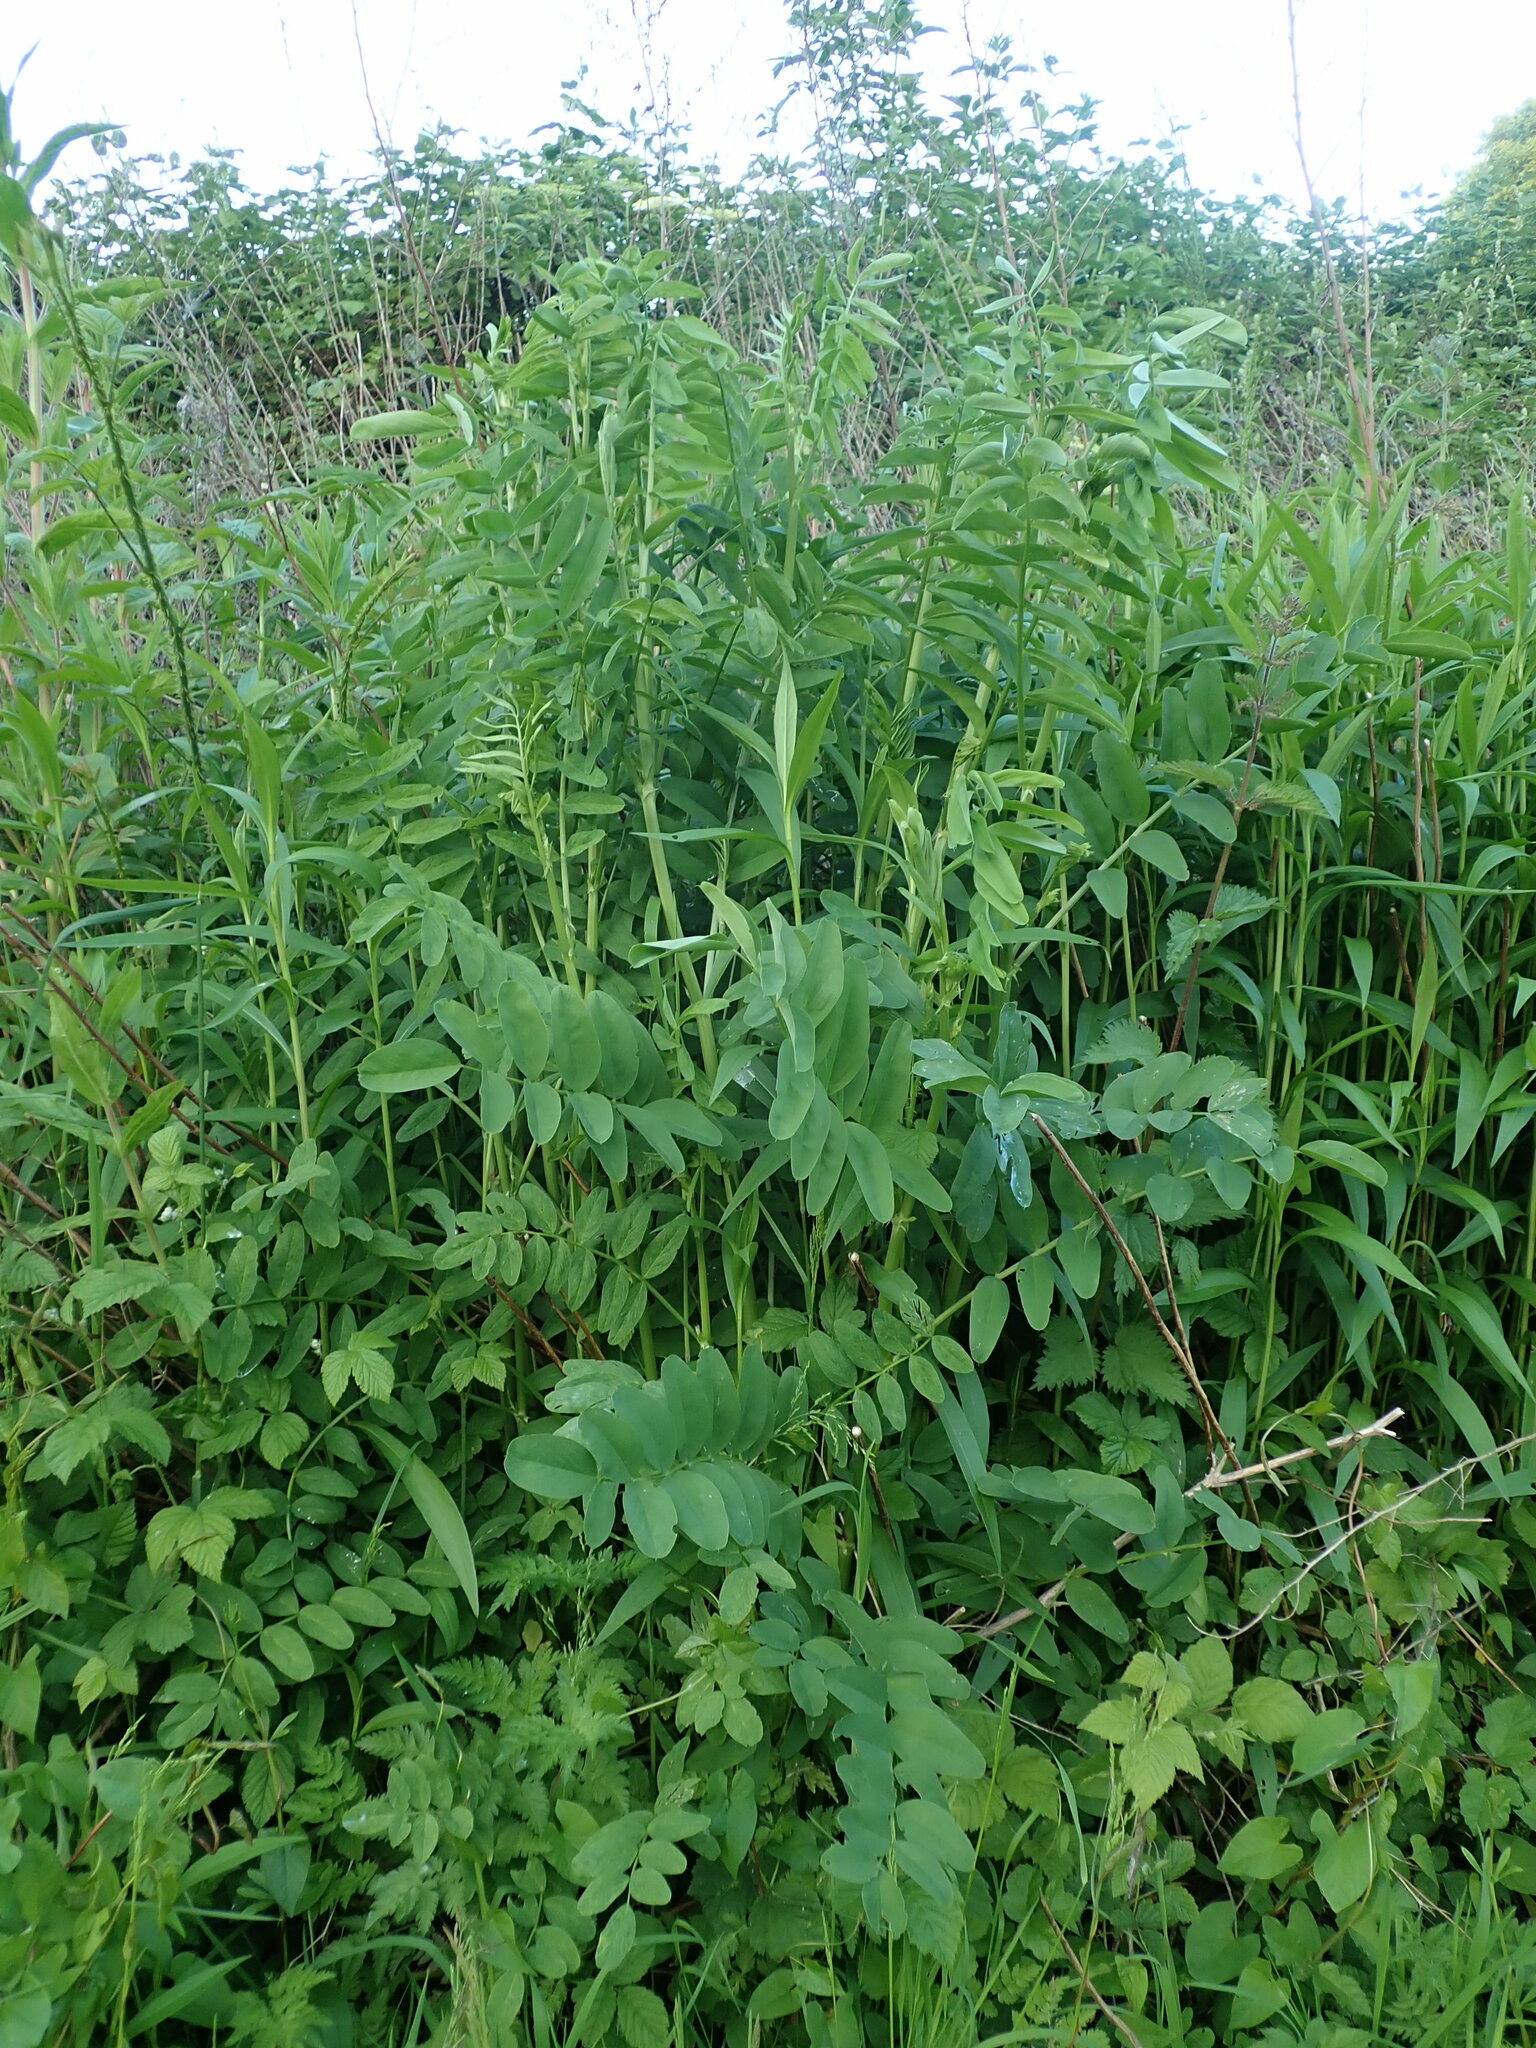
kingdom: Plantae
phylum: Tracheophyta
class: Magnoliopsida
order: Fabales
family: Fabaceae
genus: Galega
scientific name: Galega officinalis
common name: Goat's-rue
